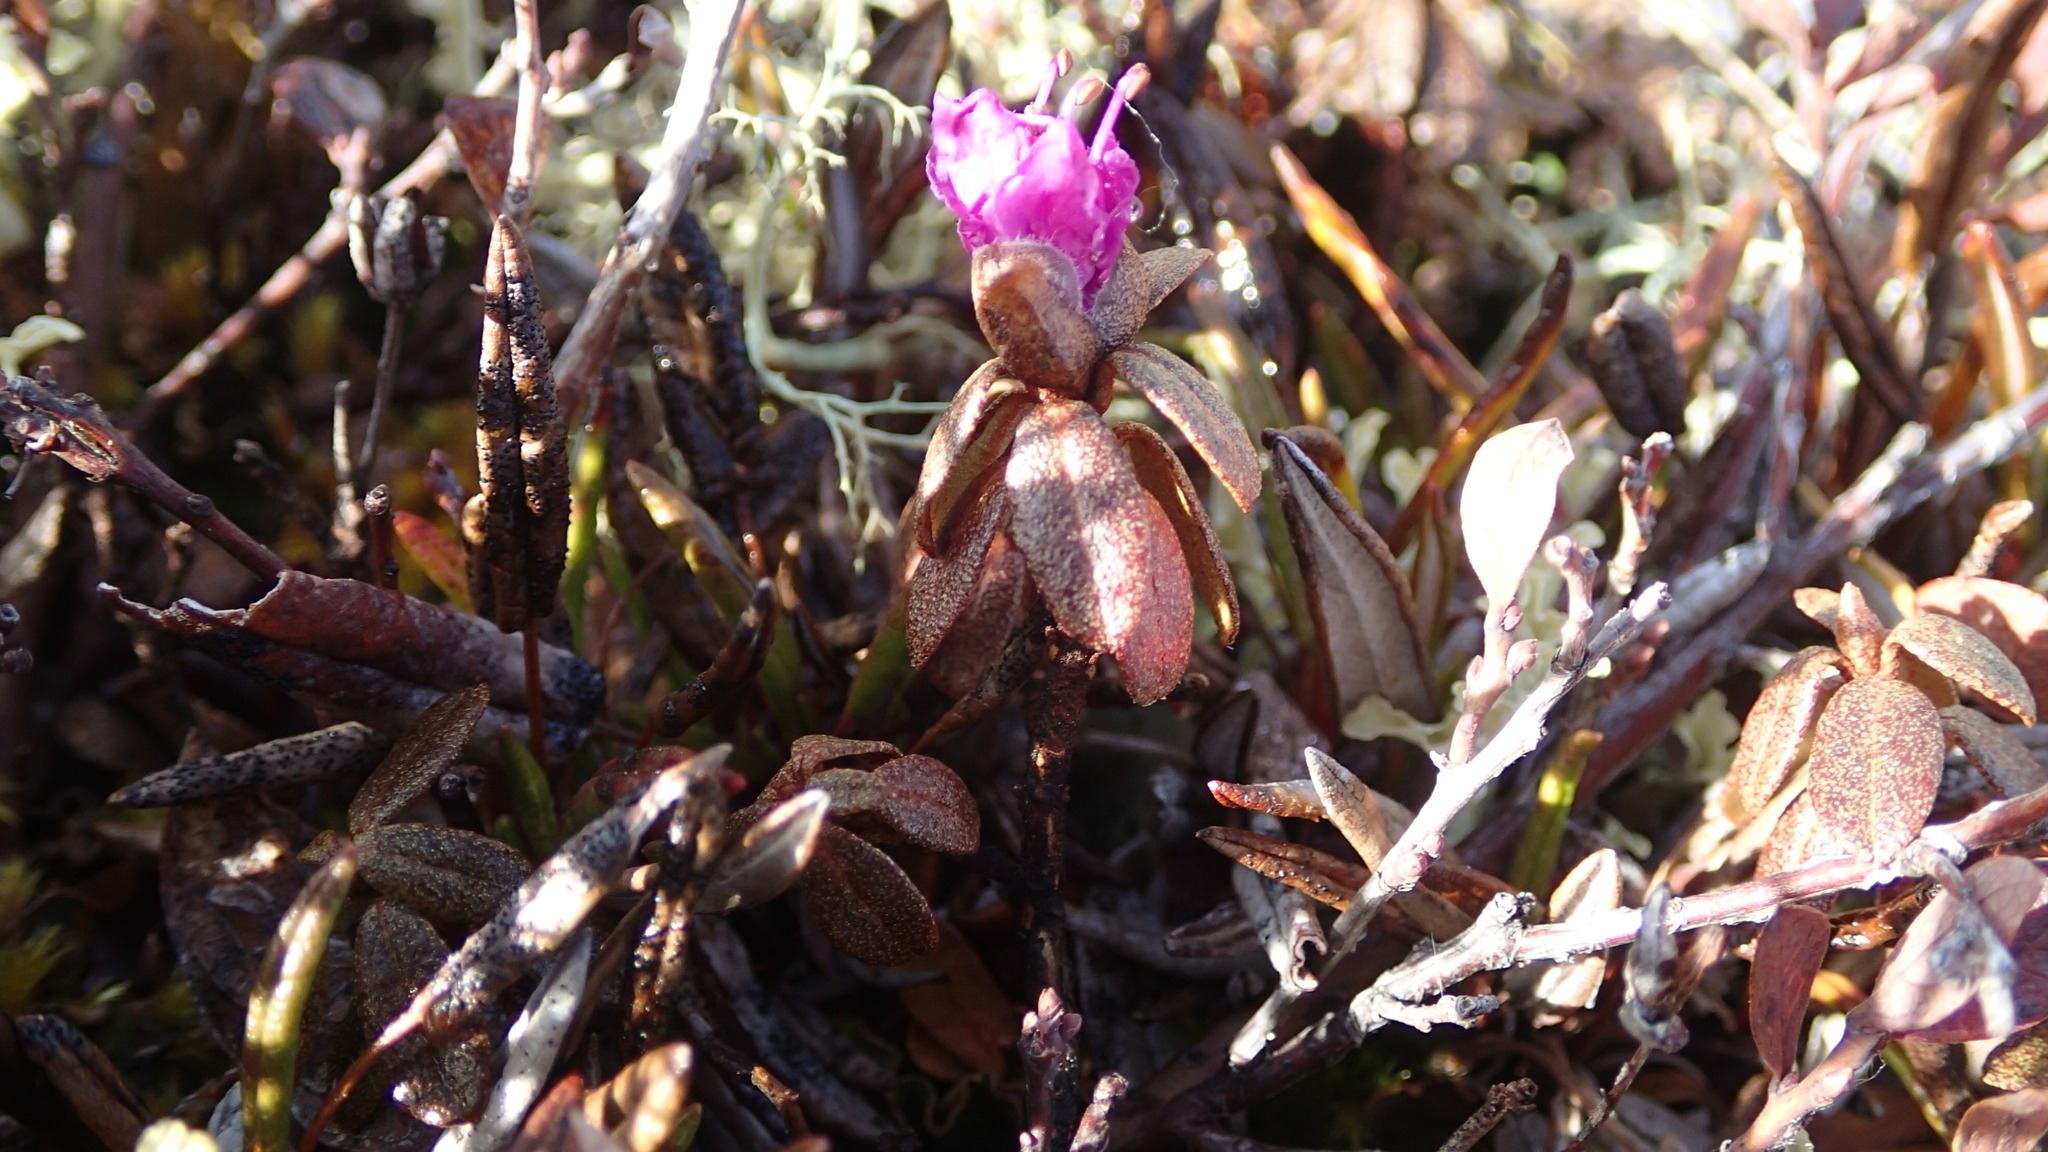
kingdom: Plantae
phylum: Tracheophyta
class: Magnoliopsida
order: Ericales
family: Ericaceae
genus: Rhododendron
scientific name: Rhododendron lapponicum
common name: Lapland rhododendron
